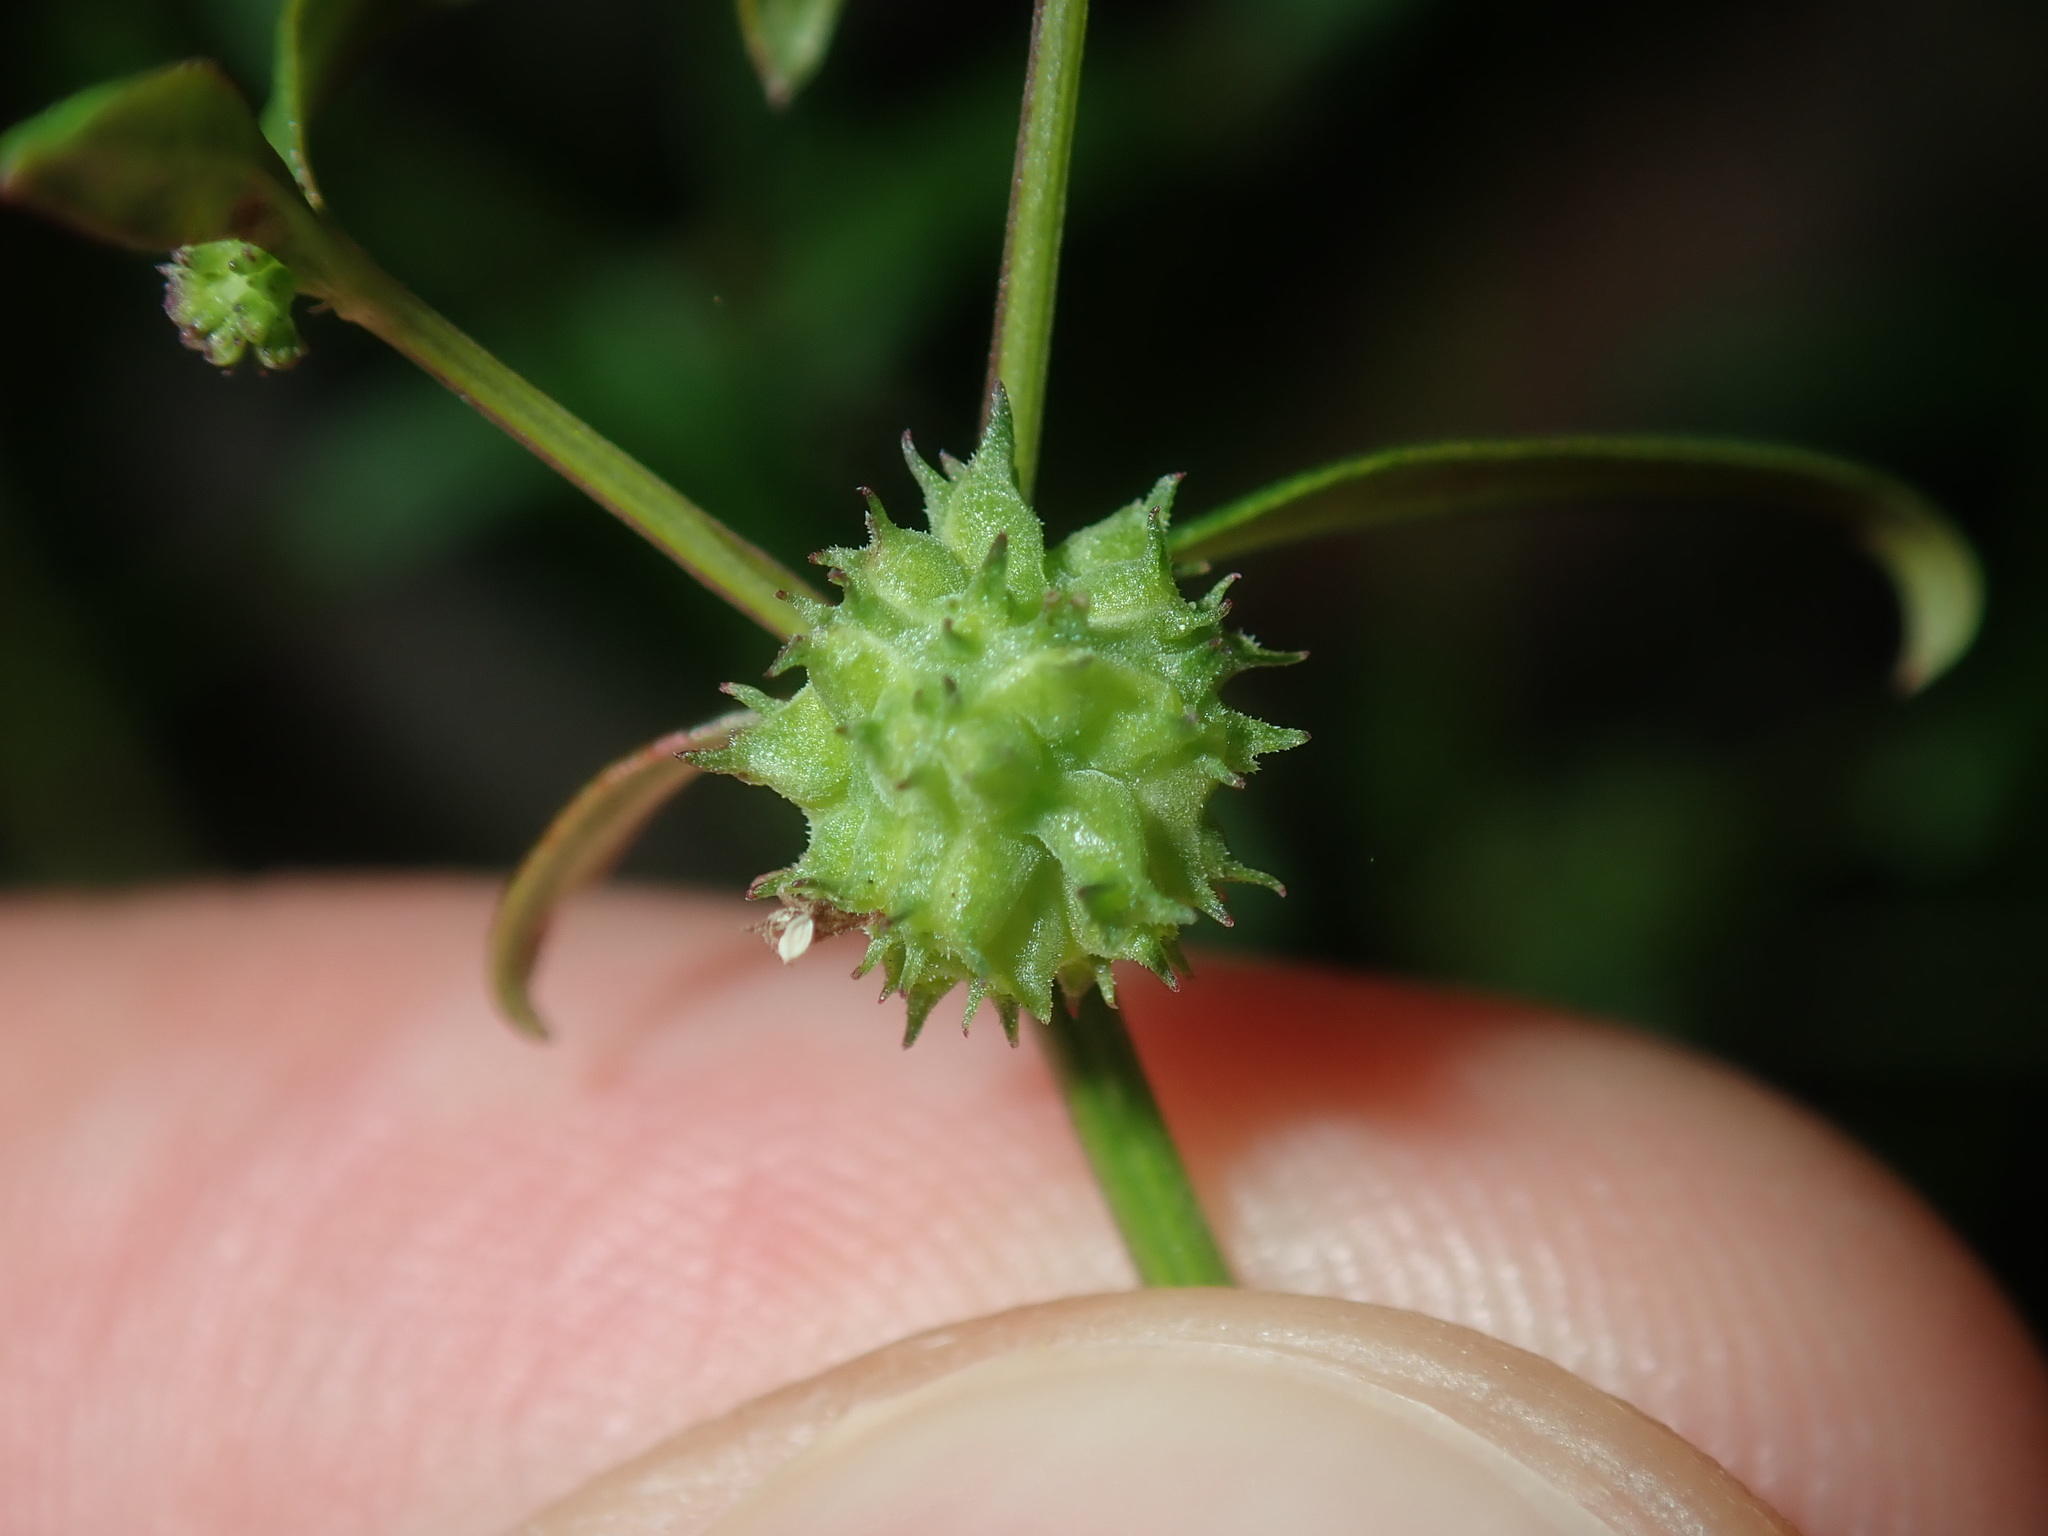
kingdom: Plantae
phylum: Tracheophyta
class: Magnoliopsida
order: Gentianales
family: Rubiaceae
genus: Opercularia
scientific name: Opercularia diphylla
